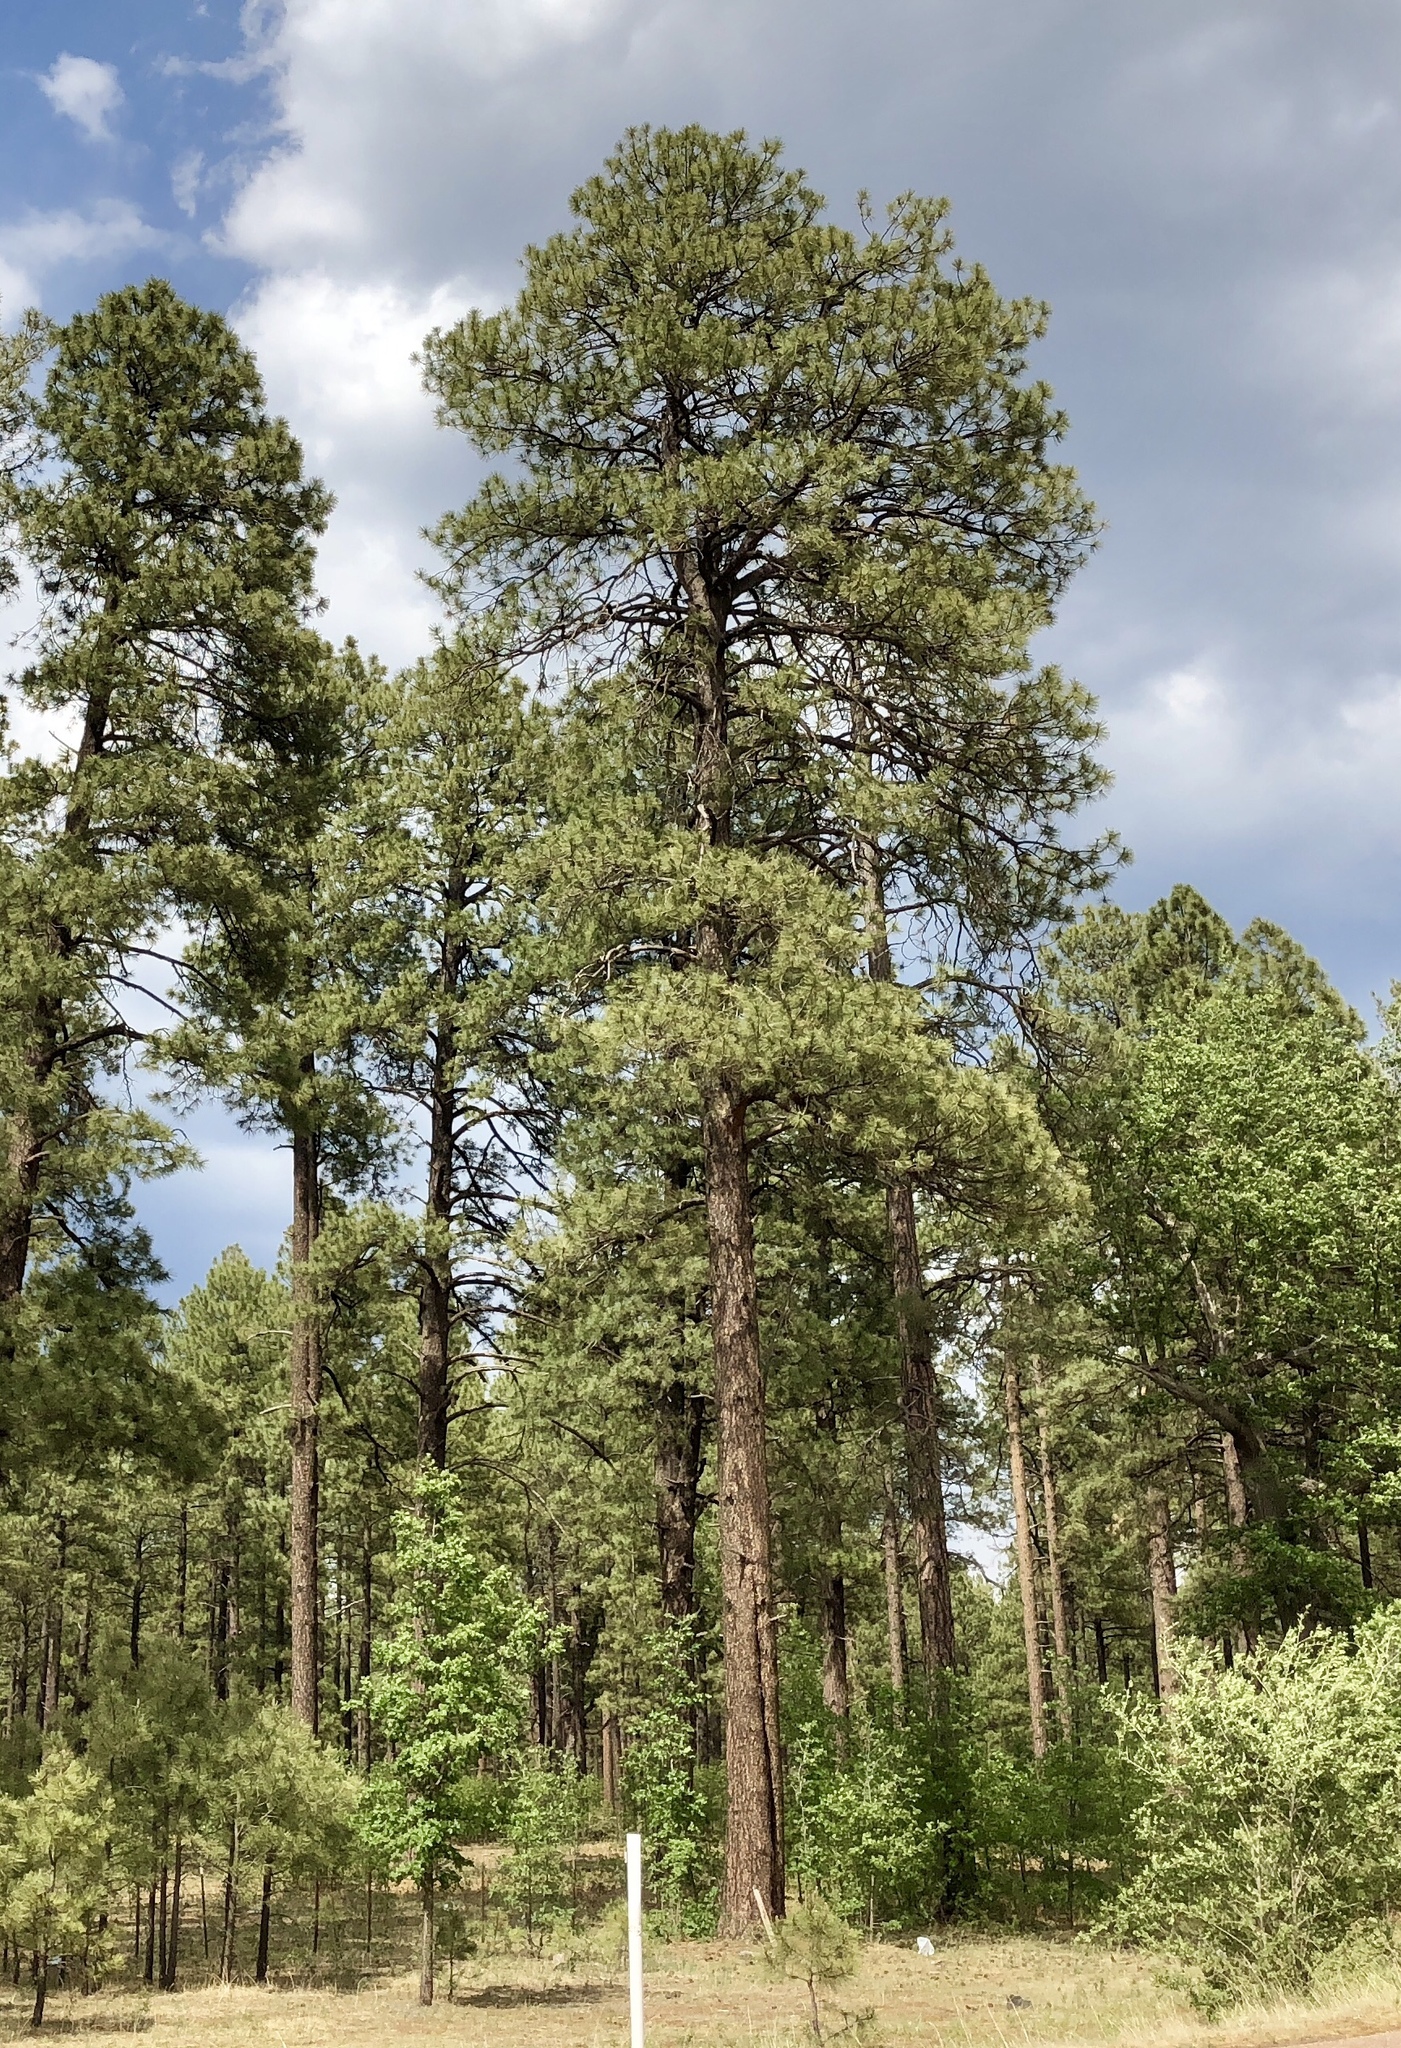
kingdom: Plantae
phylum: Tracheophyta
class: Pinopsida
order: Pinales
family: Pinaceae
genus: Pinus
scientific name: Pinus ponderosa
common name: Western yellow-pine
